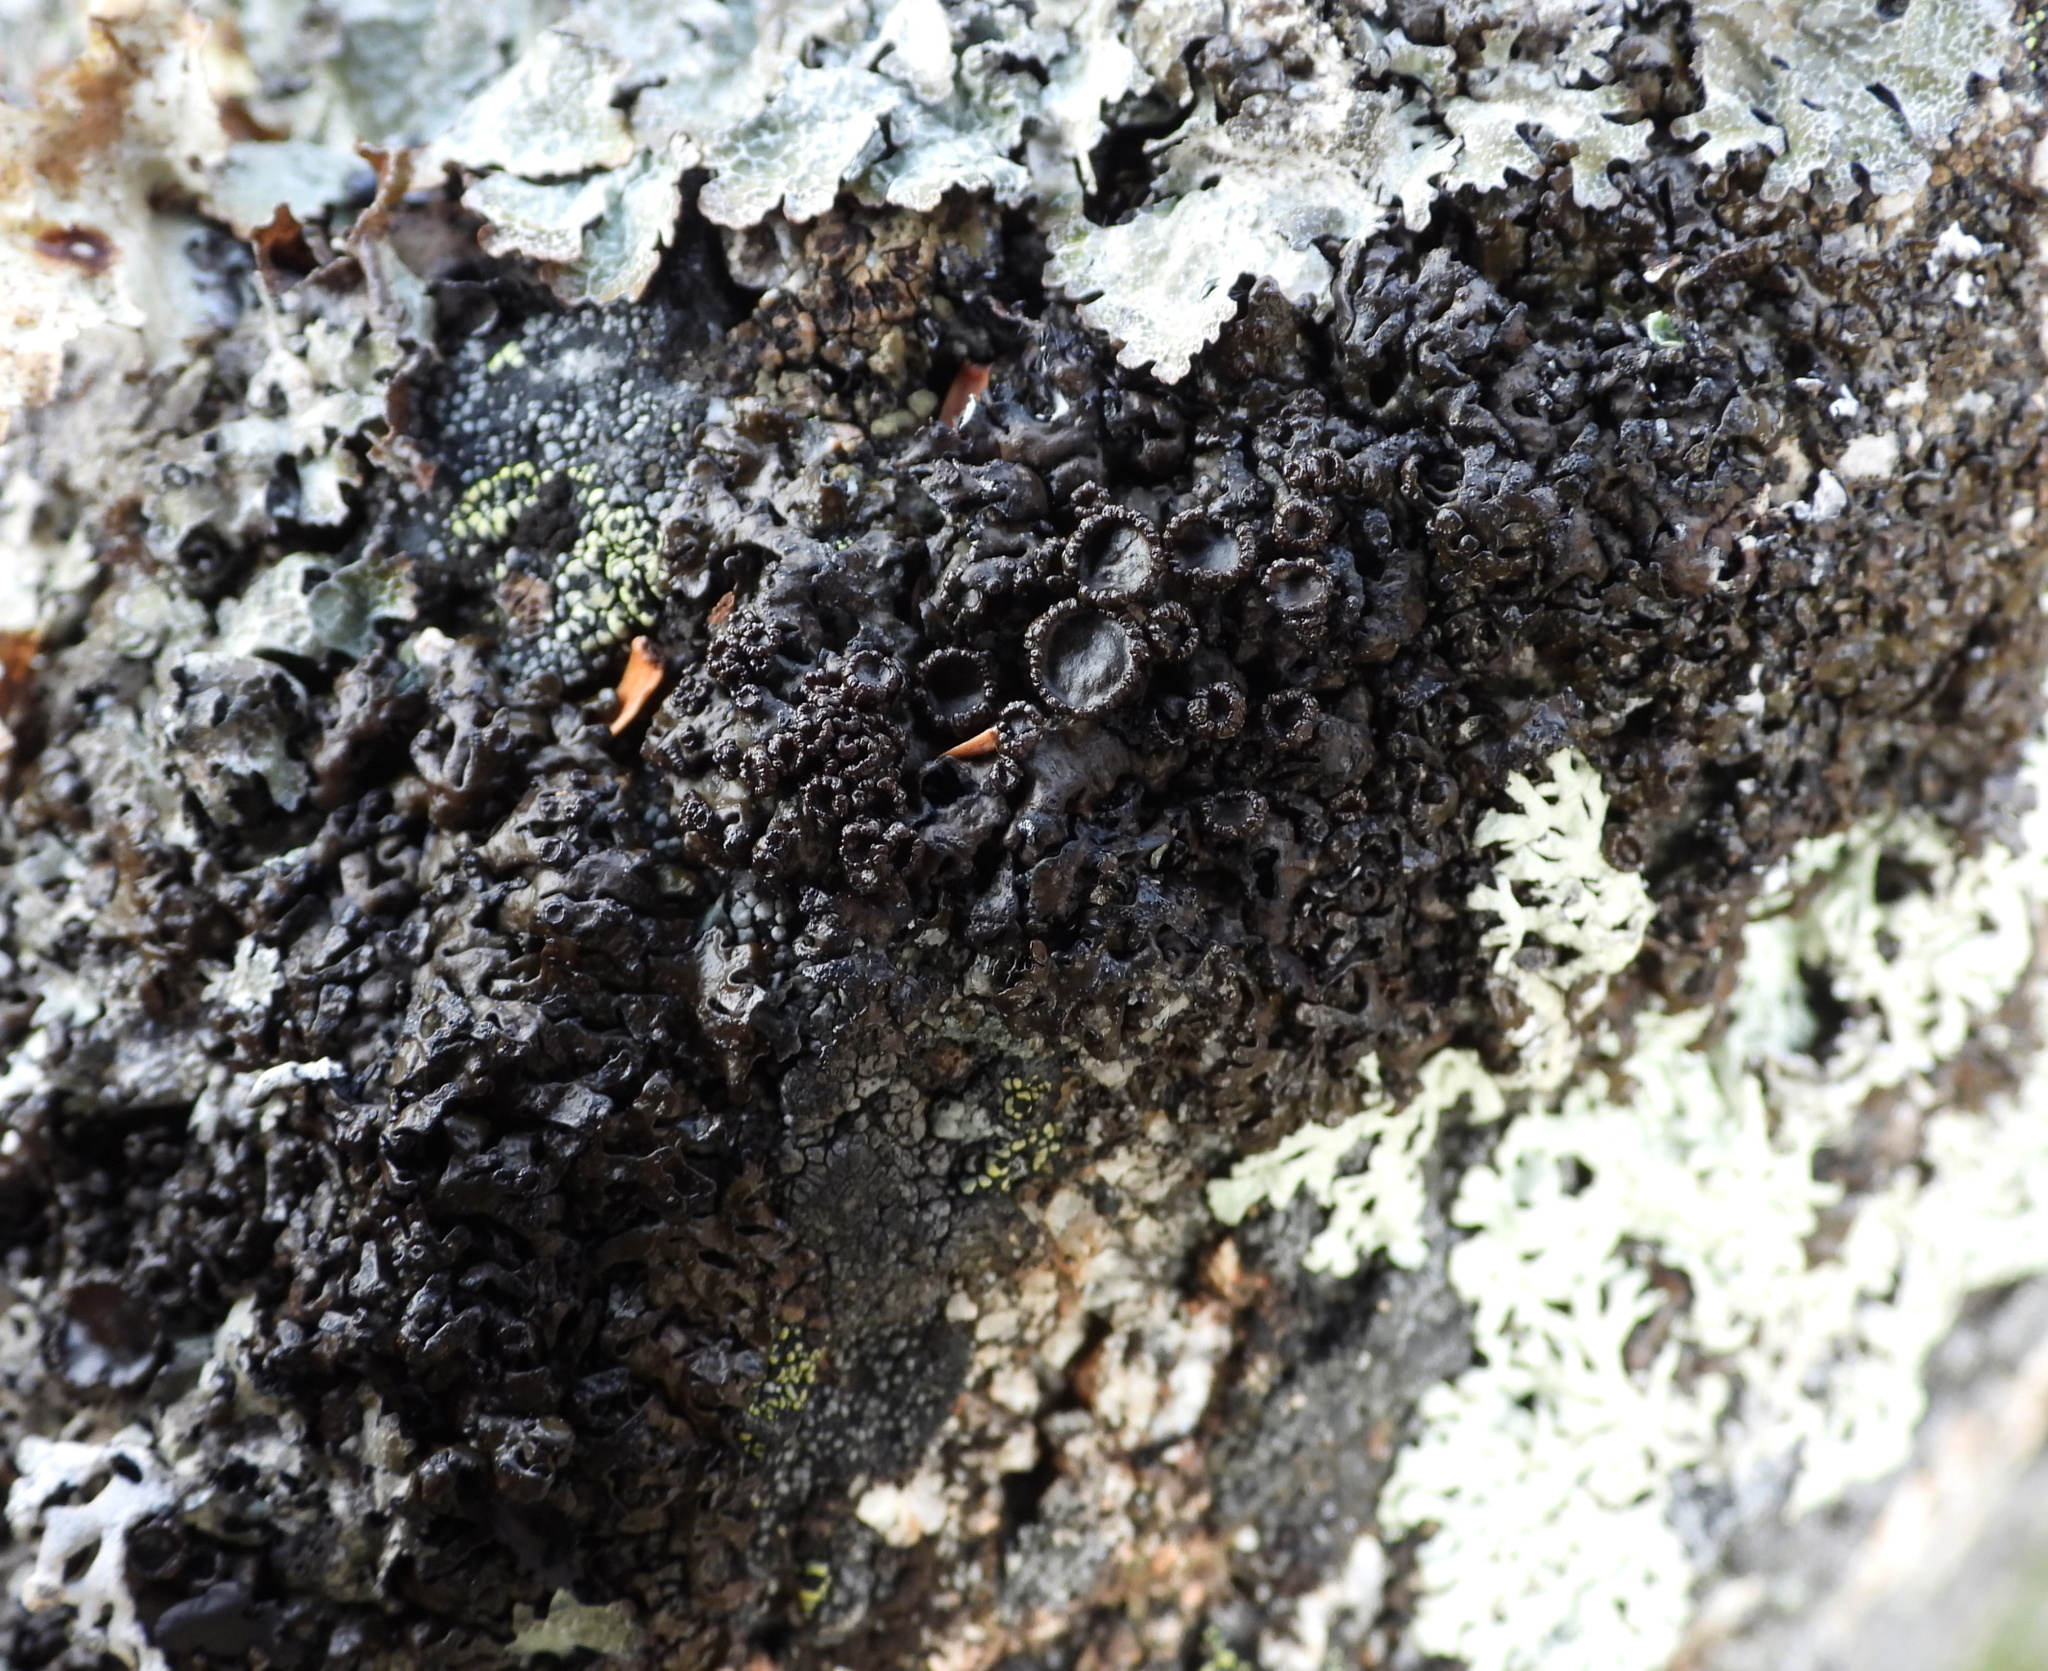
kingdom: Fungi
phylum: Ascomycota
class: Lecanoromycetes
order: Lecanorales
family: Parmeliaceae
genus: Melanelia
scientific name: Melanelia stygia
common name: Alpine camouflage lichen
